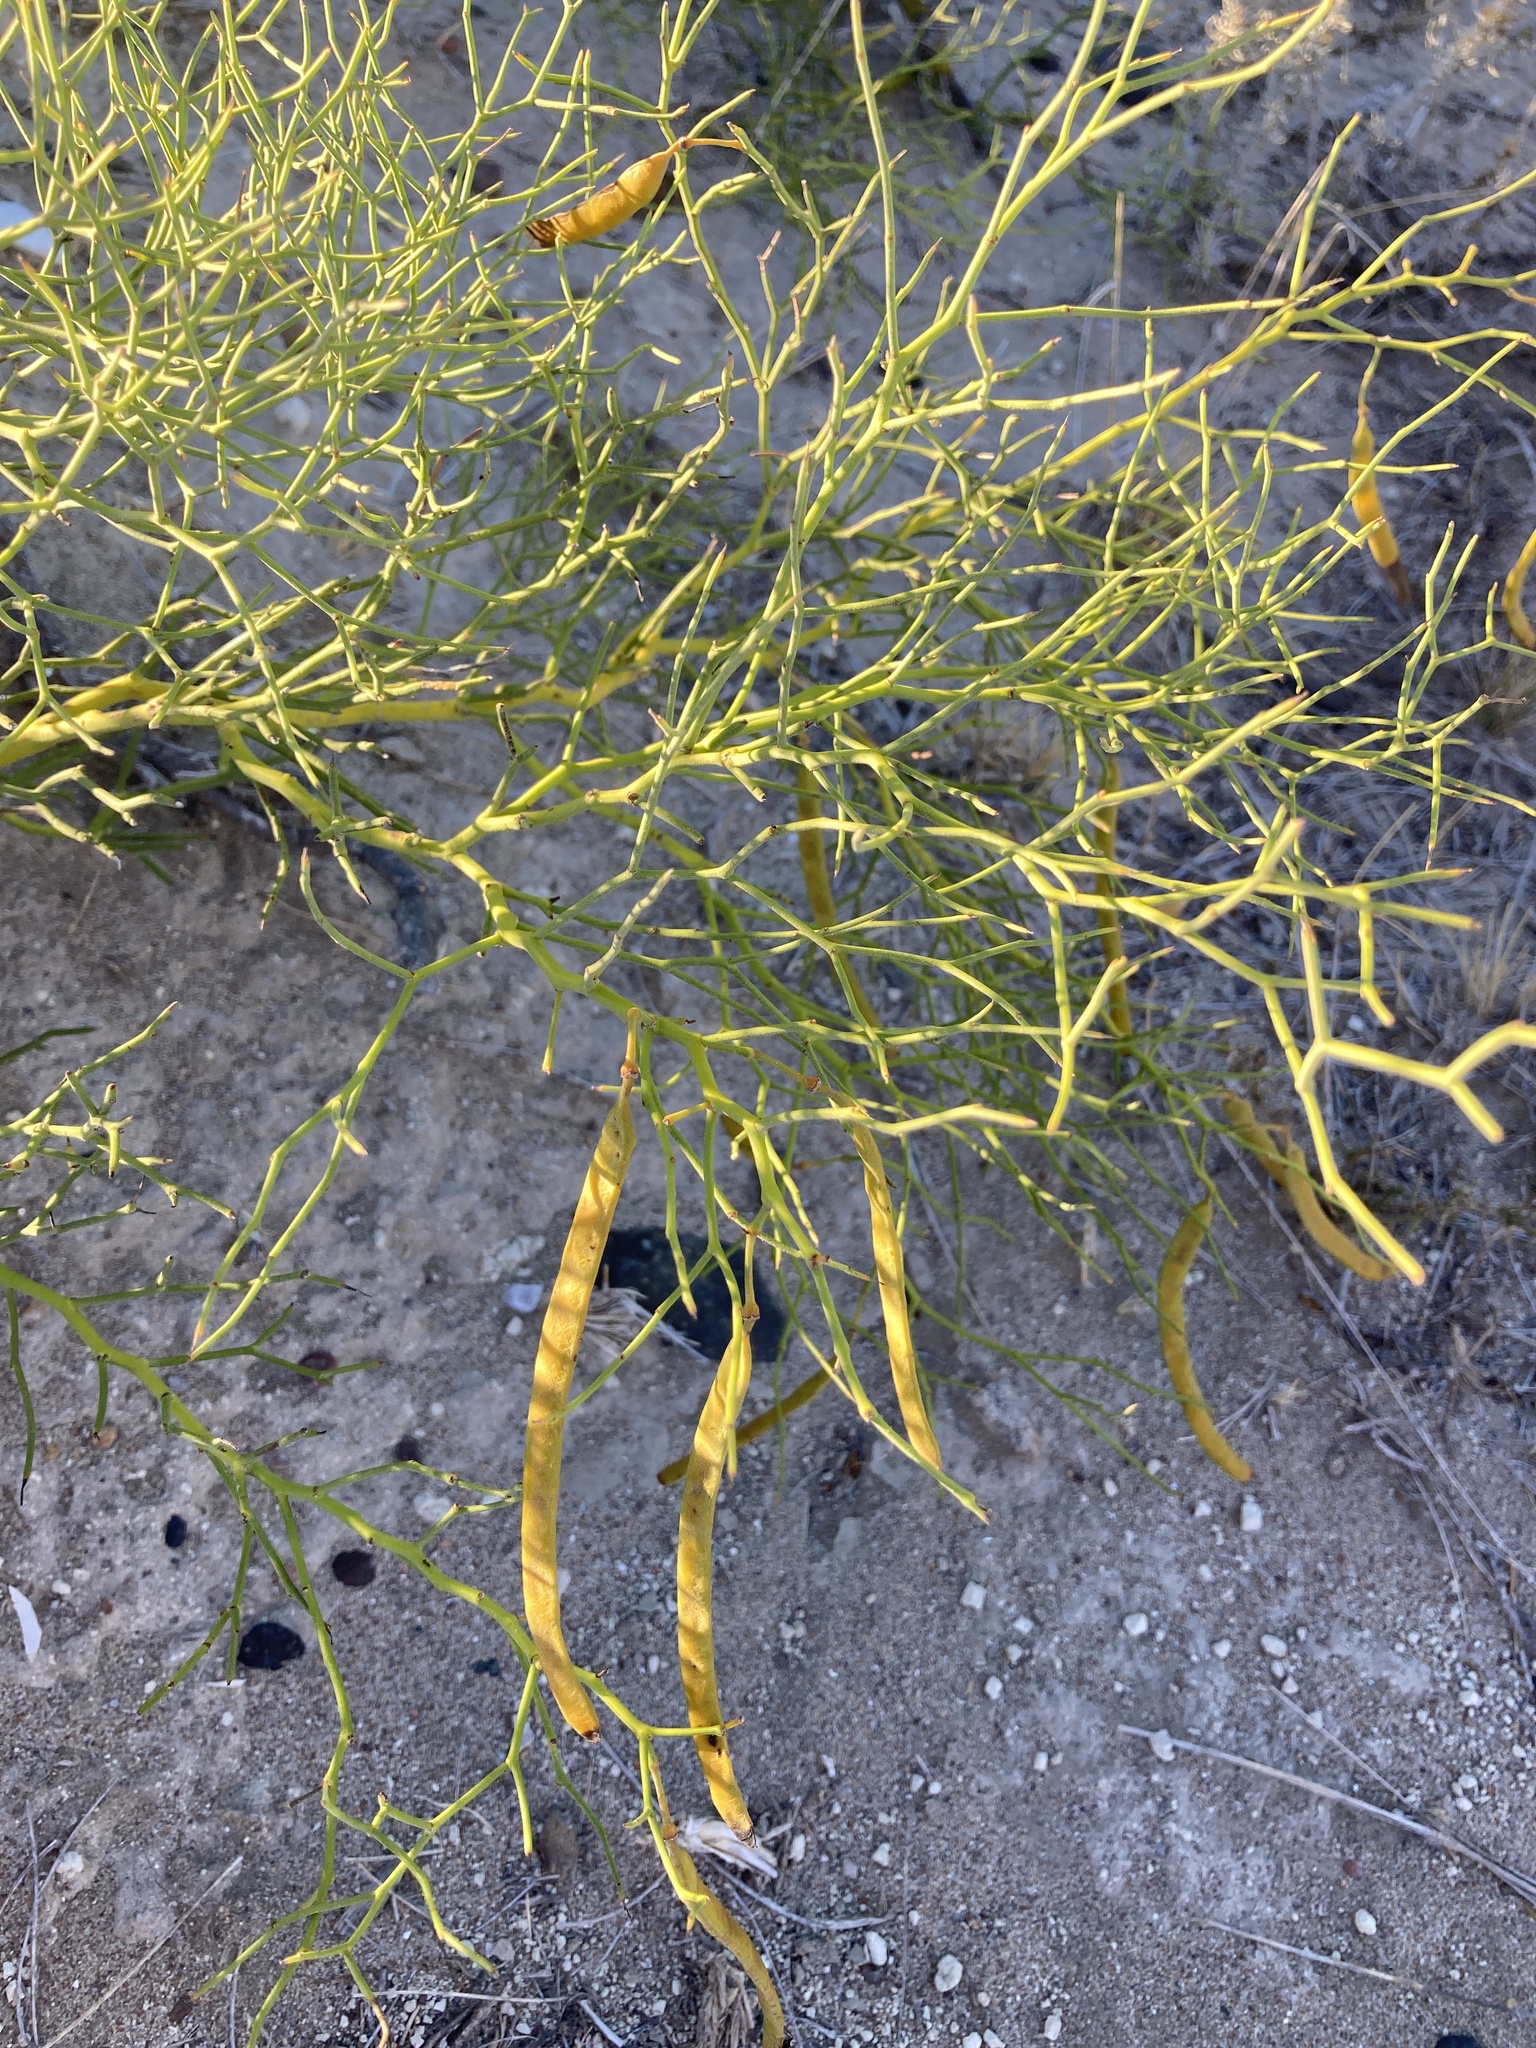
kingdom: Plantae
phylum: Tracheophyta
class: Magnoliopsida
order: Fabales
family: Fabaceae
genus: Senna
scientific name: Senna pachyrrhiza
